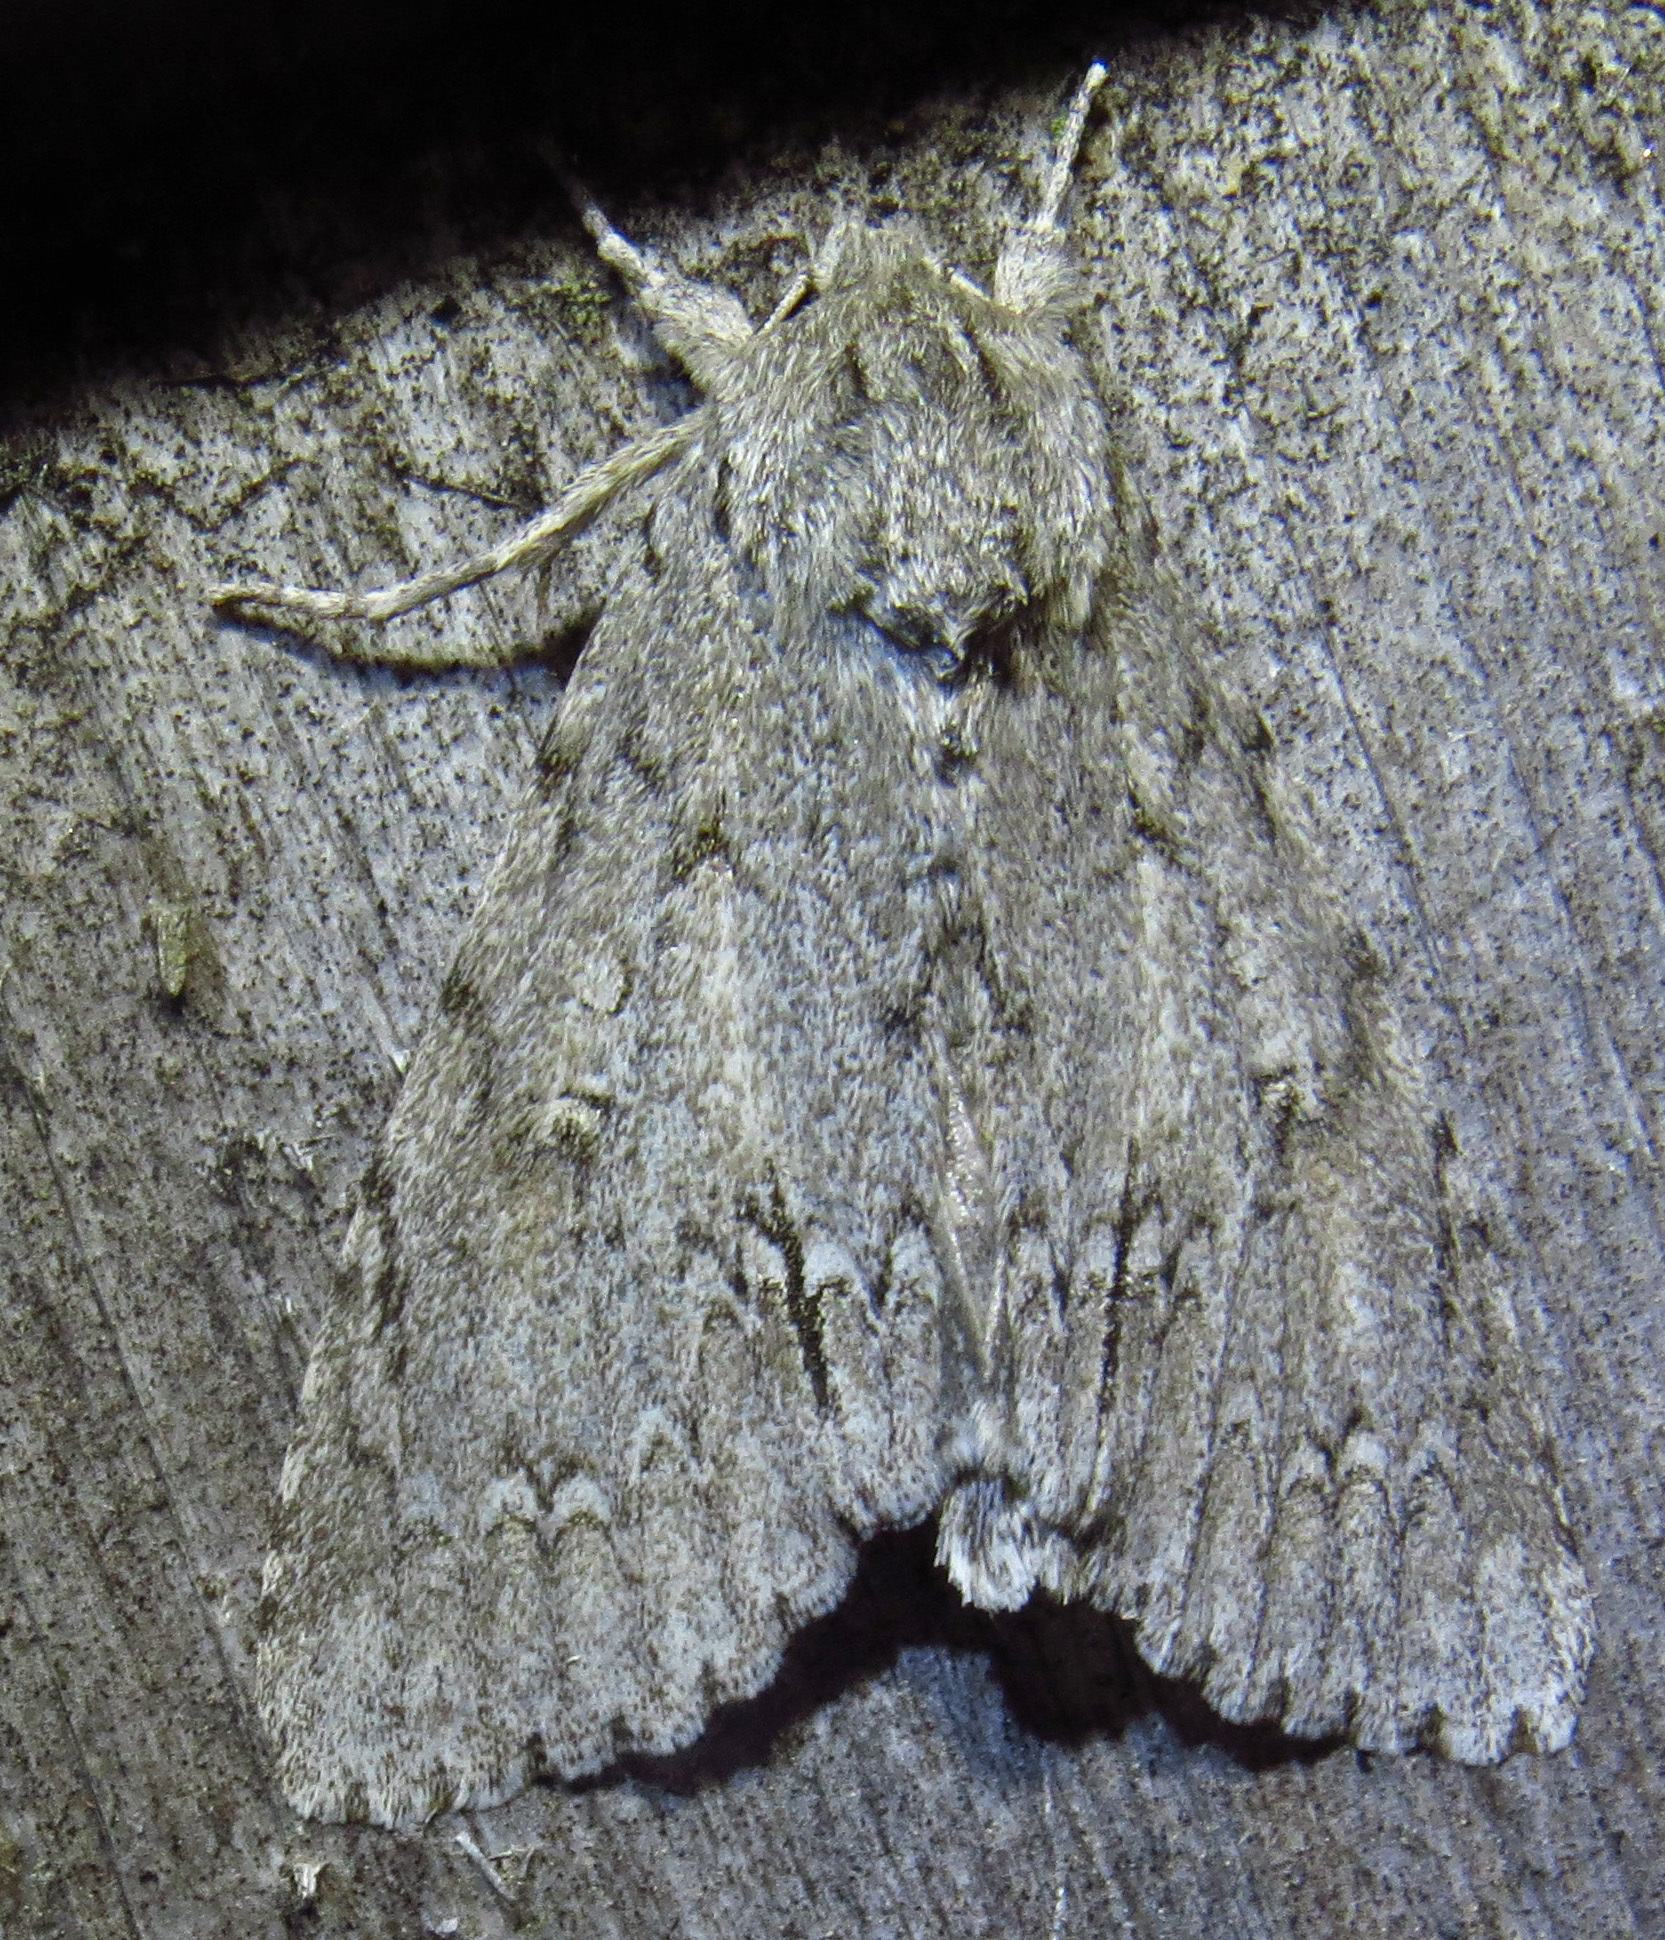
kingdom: Animalia
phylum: Arthropoda
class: Insecta
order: Lepidoptera
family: Noctuidae
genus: Acronicta
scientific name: Acronicta americana
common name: American dagger
